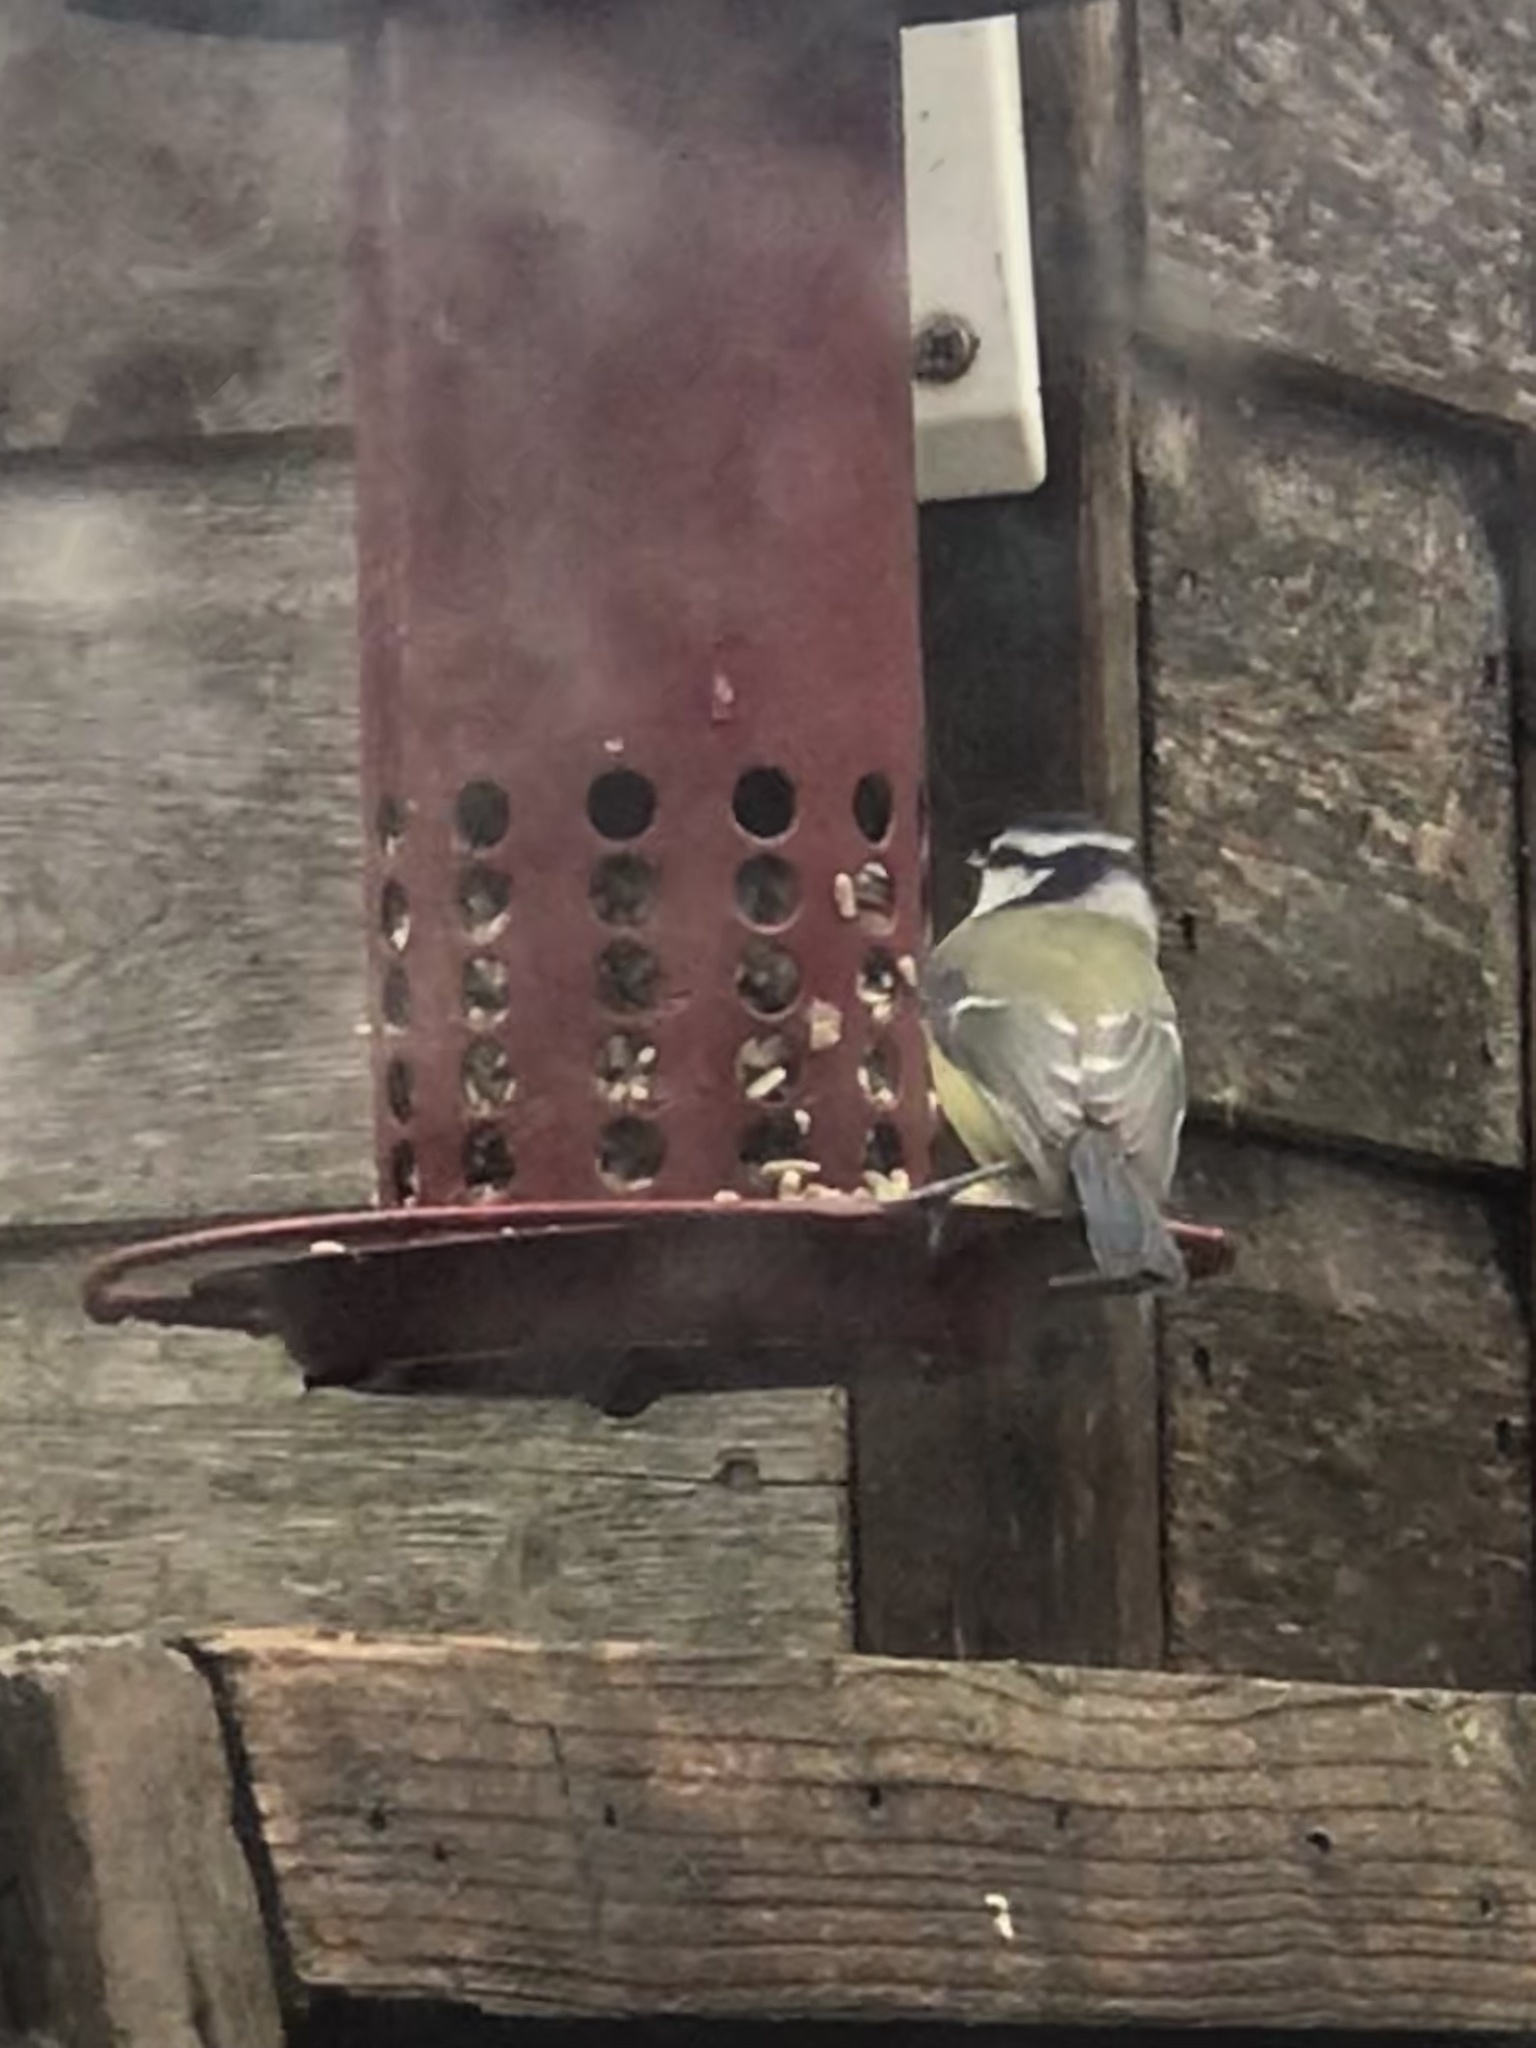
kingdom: Animalia
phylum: Chordata
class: Aves
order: Passeriformes
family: Paridae
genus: Cyanistes
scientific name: Cyanistes caeruleus
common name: Eurasian blue tit
